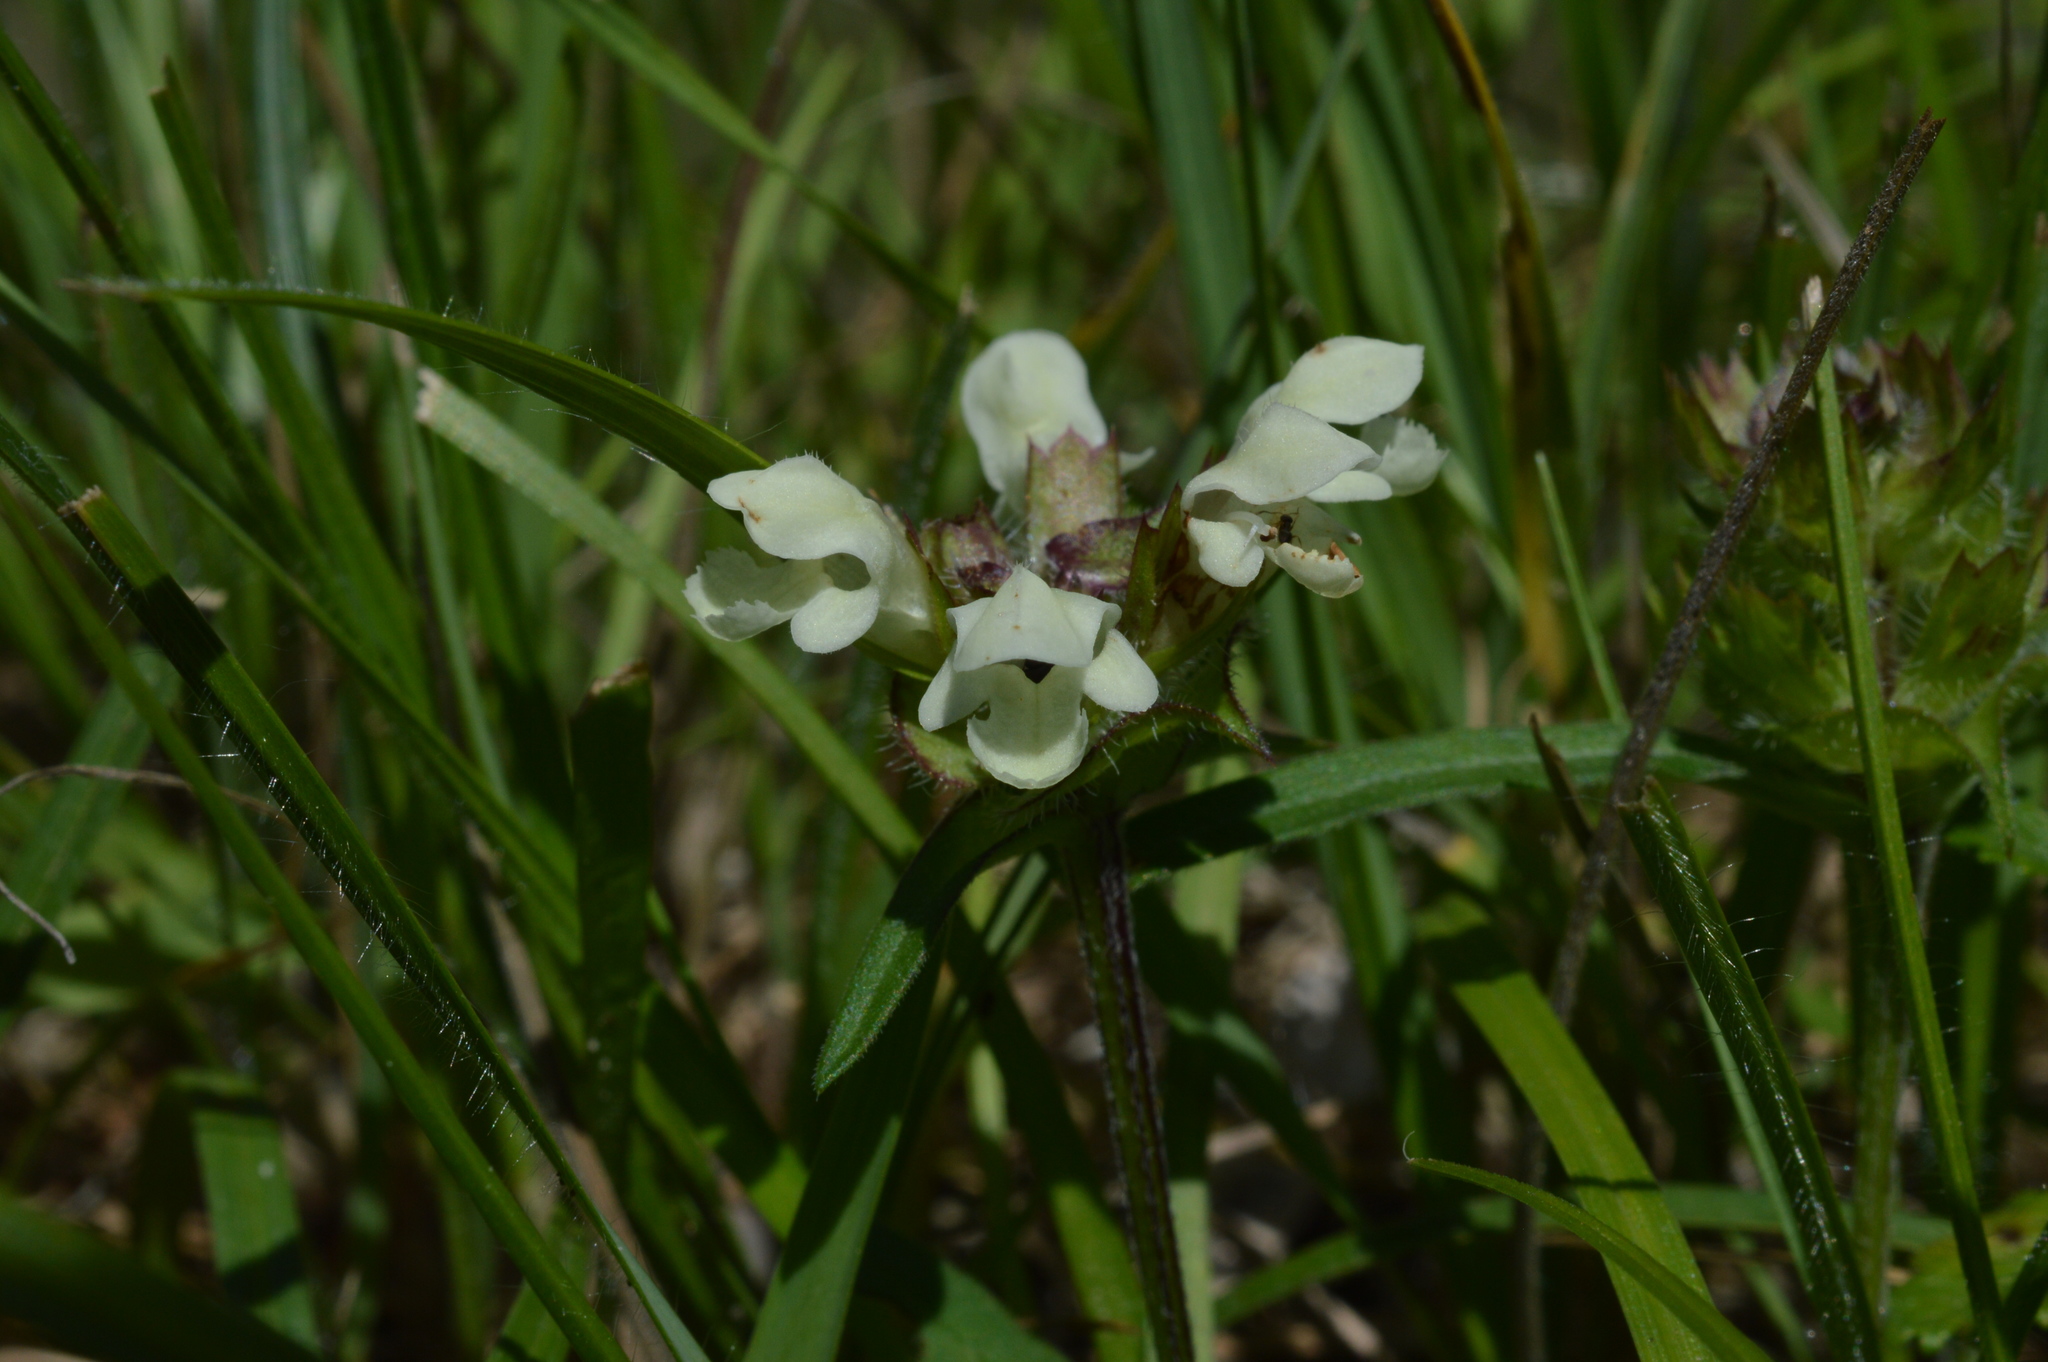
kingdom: Plantae
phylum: Tracheophyta
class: Magnoliopsida
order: Lamiales
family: Lamiaceae
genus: Prunella
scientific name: Prunella laciniata
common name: Cut-leaved selfheal
